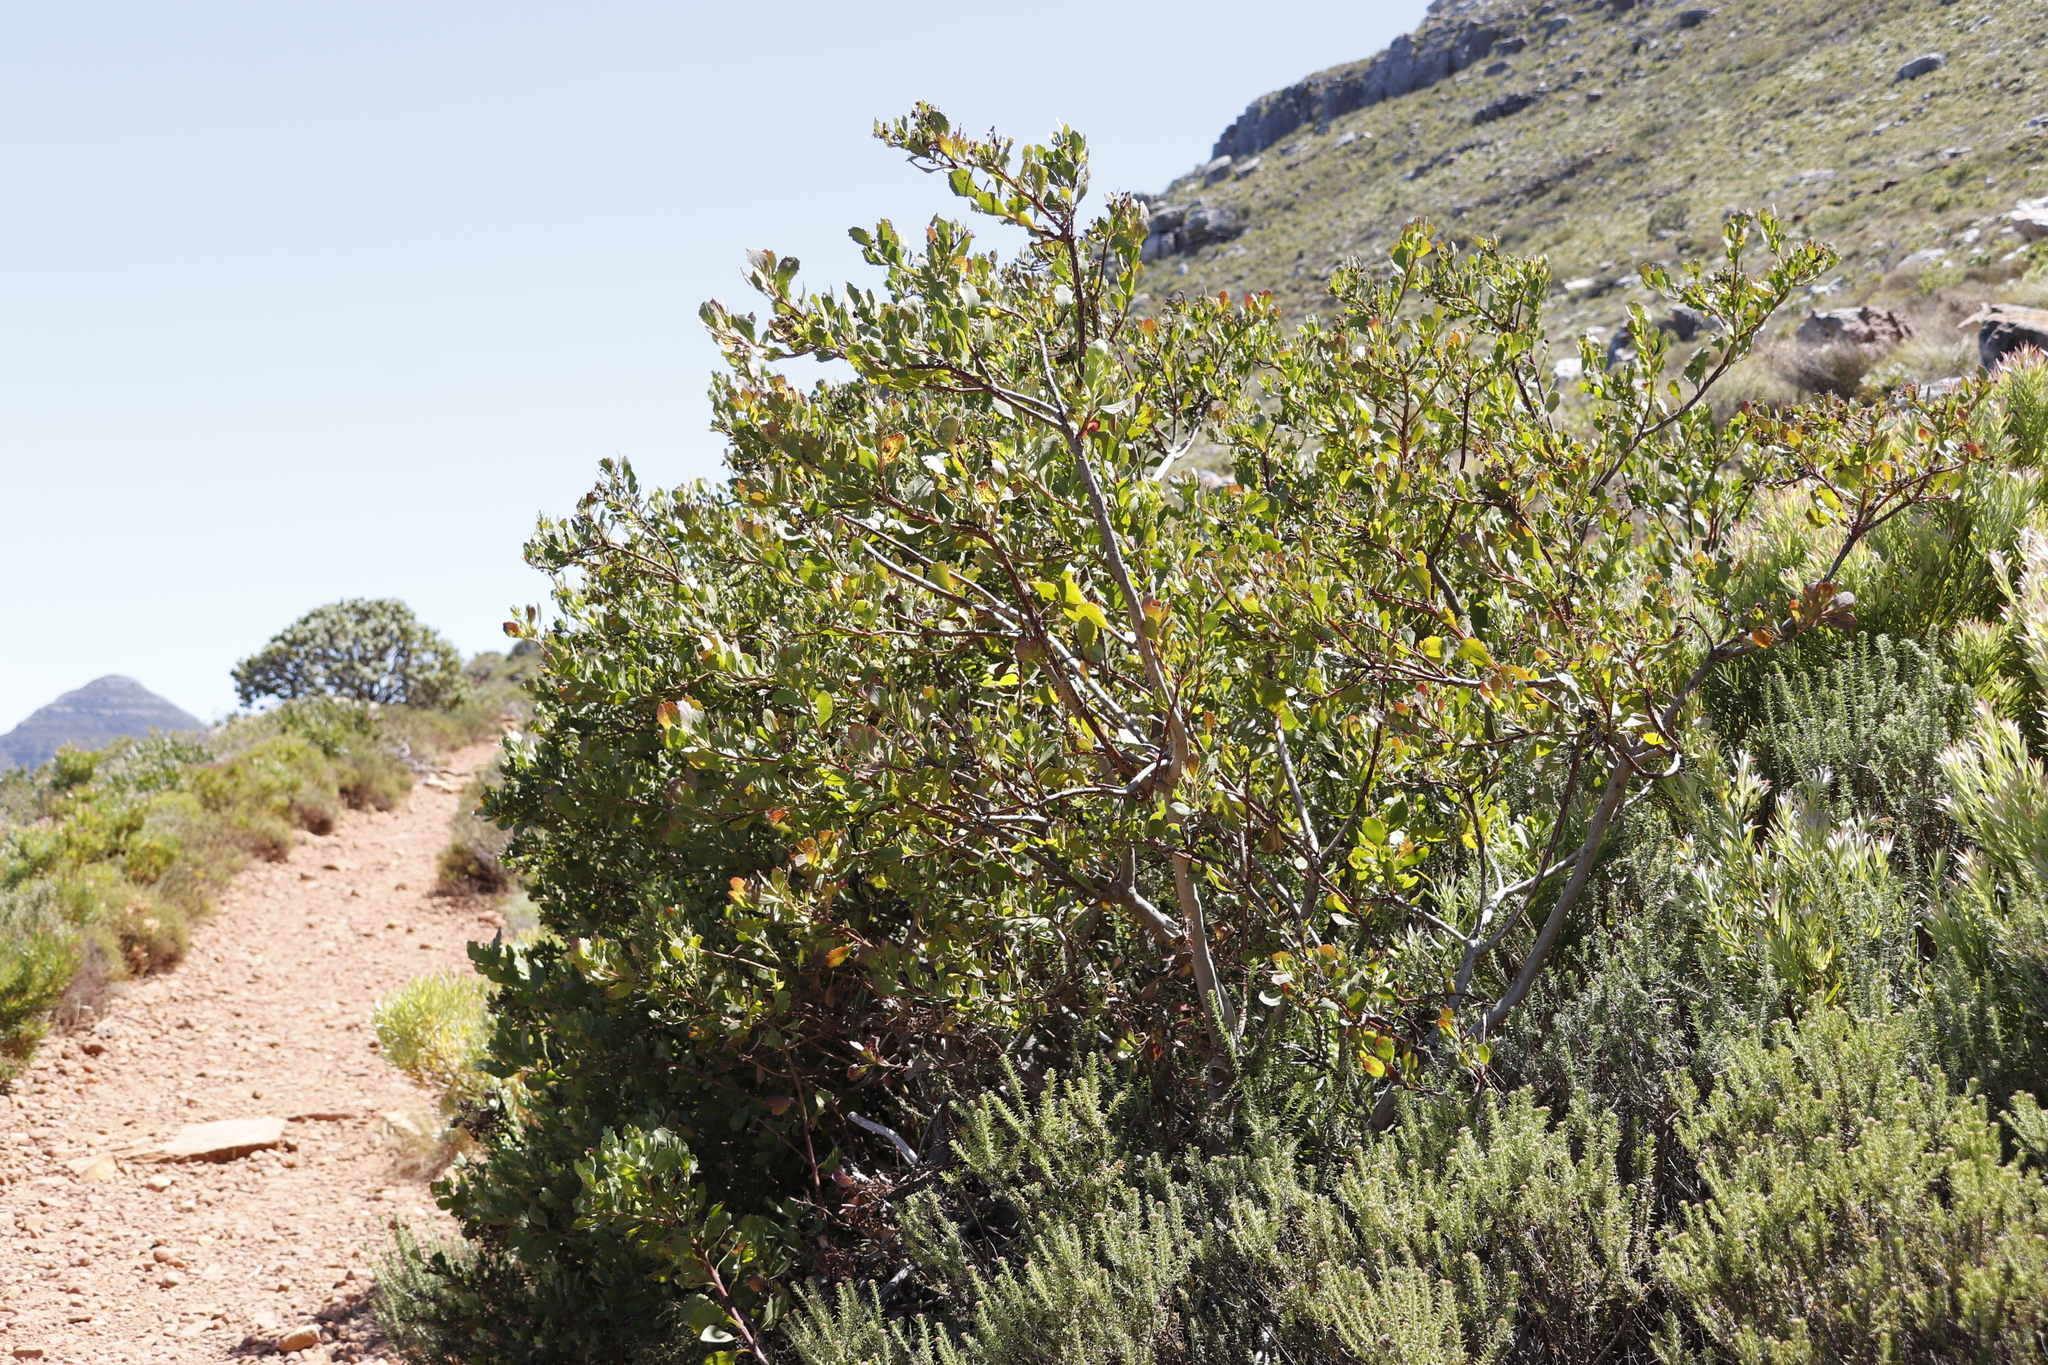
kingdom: Plantae
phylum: Tracheophyta
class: Magnoliopsida
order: Asterales
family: Asteraceae
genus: Osteospermum
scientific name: Osteospermum moniliferum
